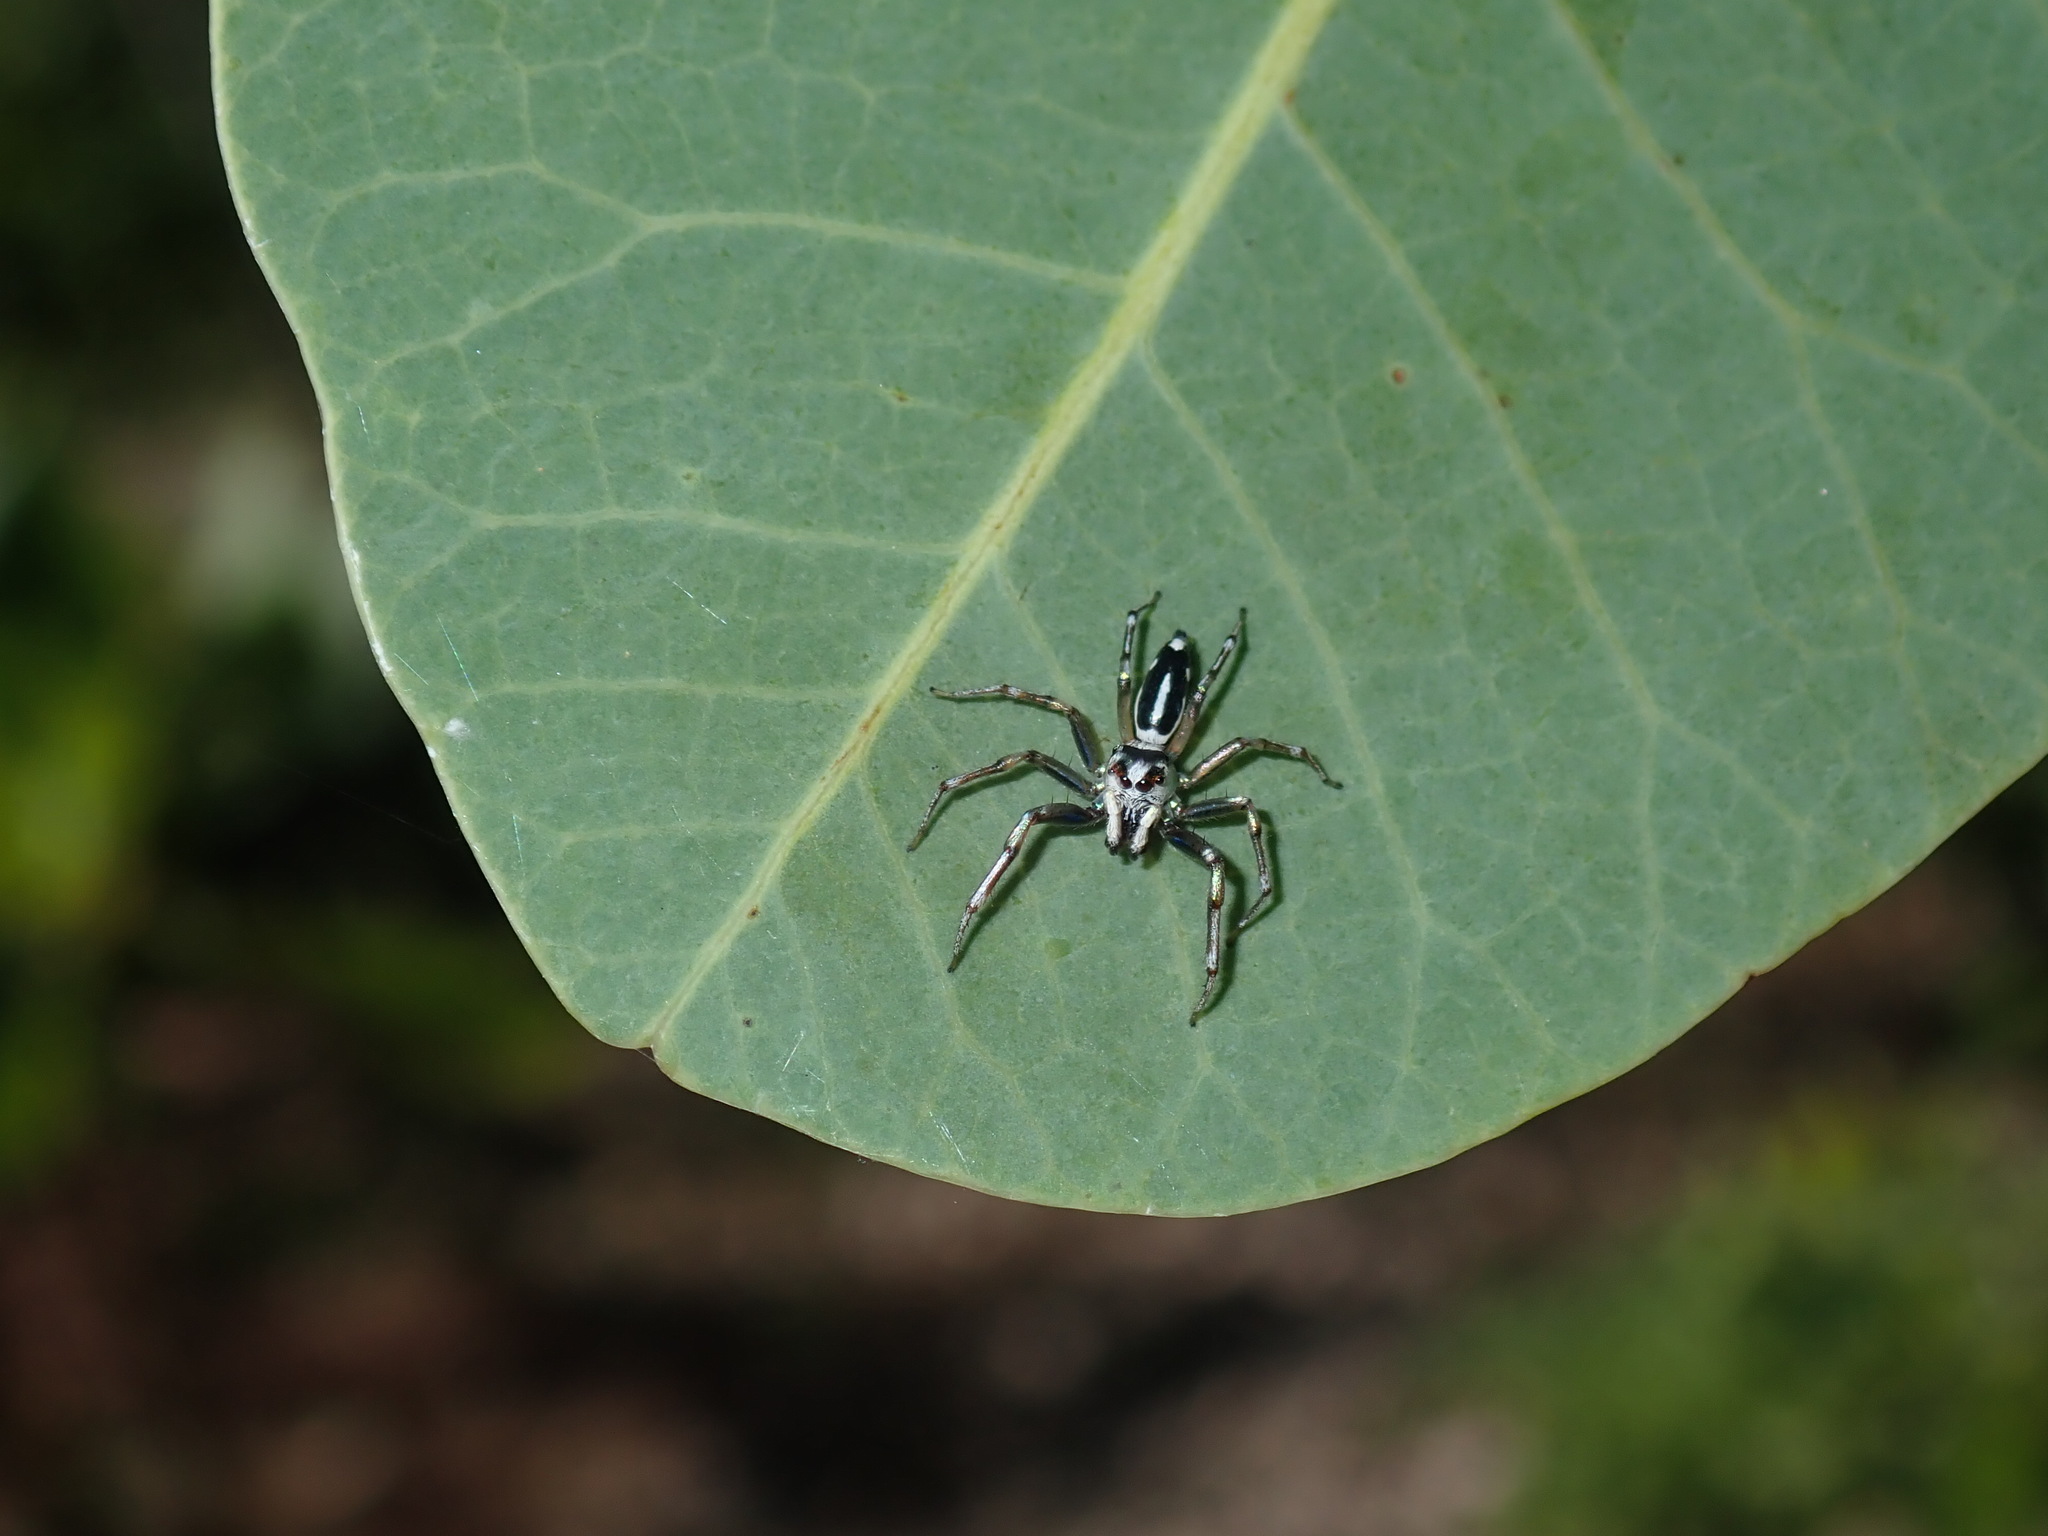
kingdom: Animalia
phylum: Arthropoda
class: Arachnida
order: Araneae
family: Salticidae
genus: Cosmophasis
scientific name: Cosmophasis baehrae
